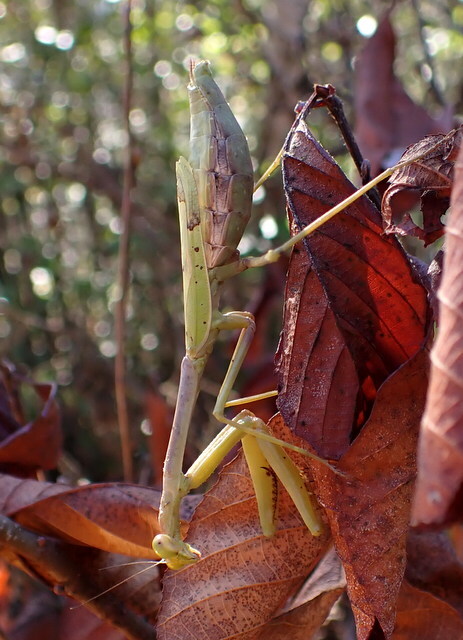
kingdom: Animalia
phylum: Arthropoda
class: Insecta
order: Mantodea
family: Mantidae
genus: Stagmomantis
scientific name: Stagmomantis floridensis
